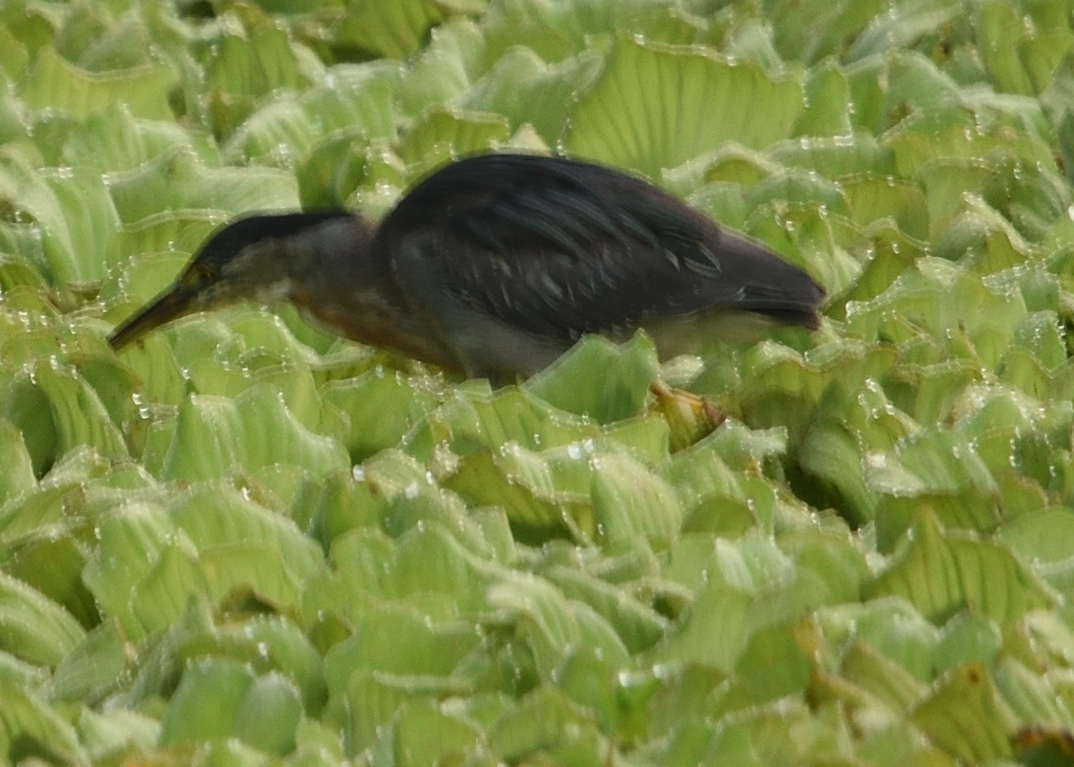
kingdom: Animalia
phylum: Chordata
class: Aves
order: Pelecaniformes
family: Ardeidae
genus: Butorides
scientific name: Butorides striata
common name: Striated heron
